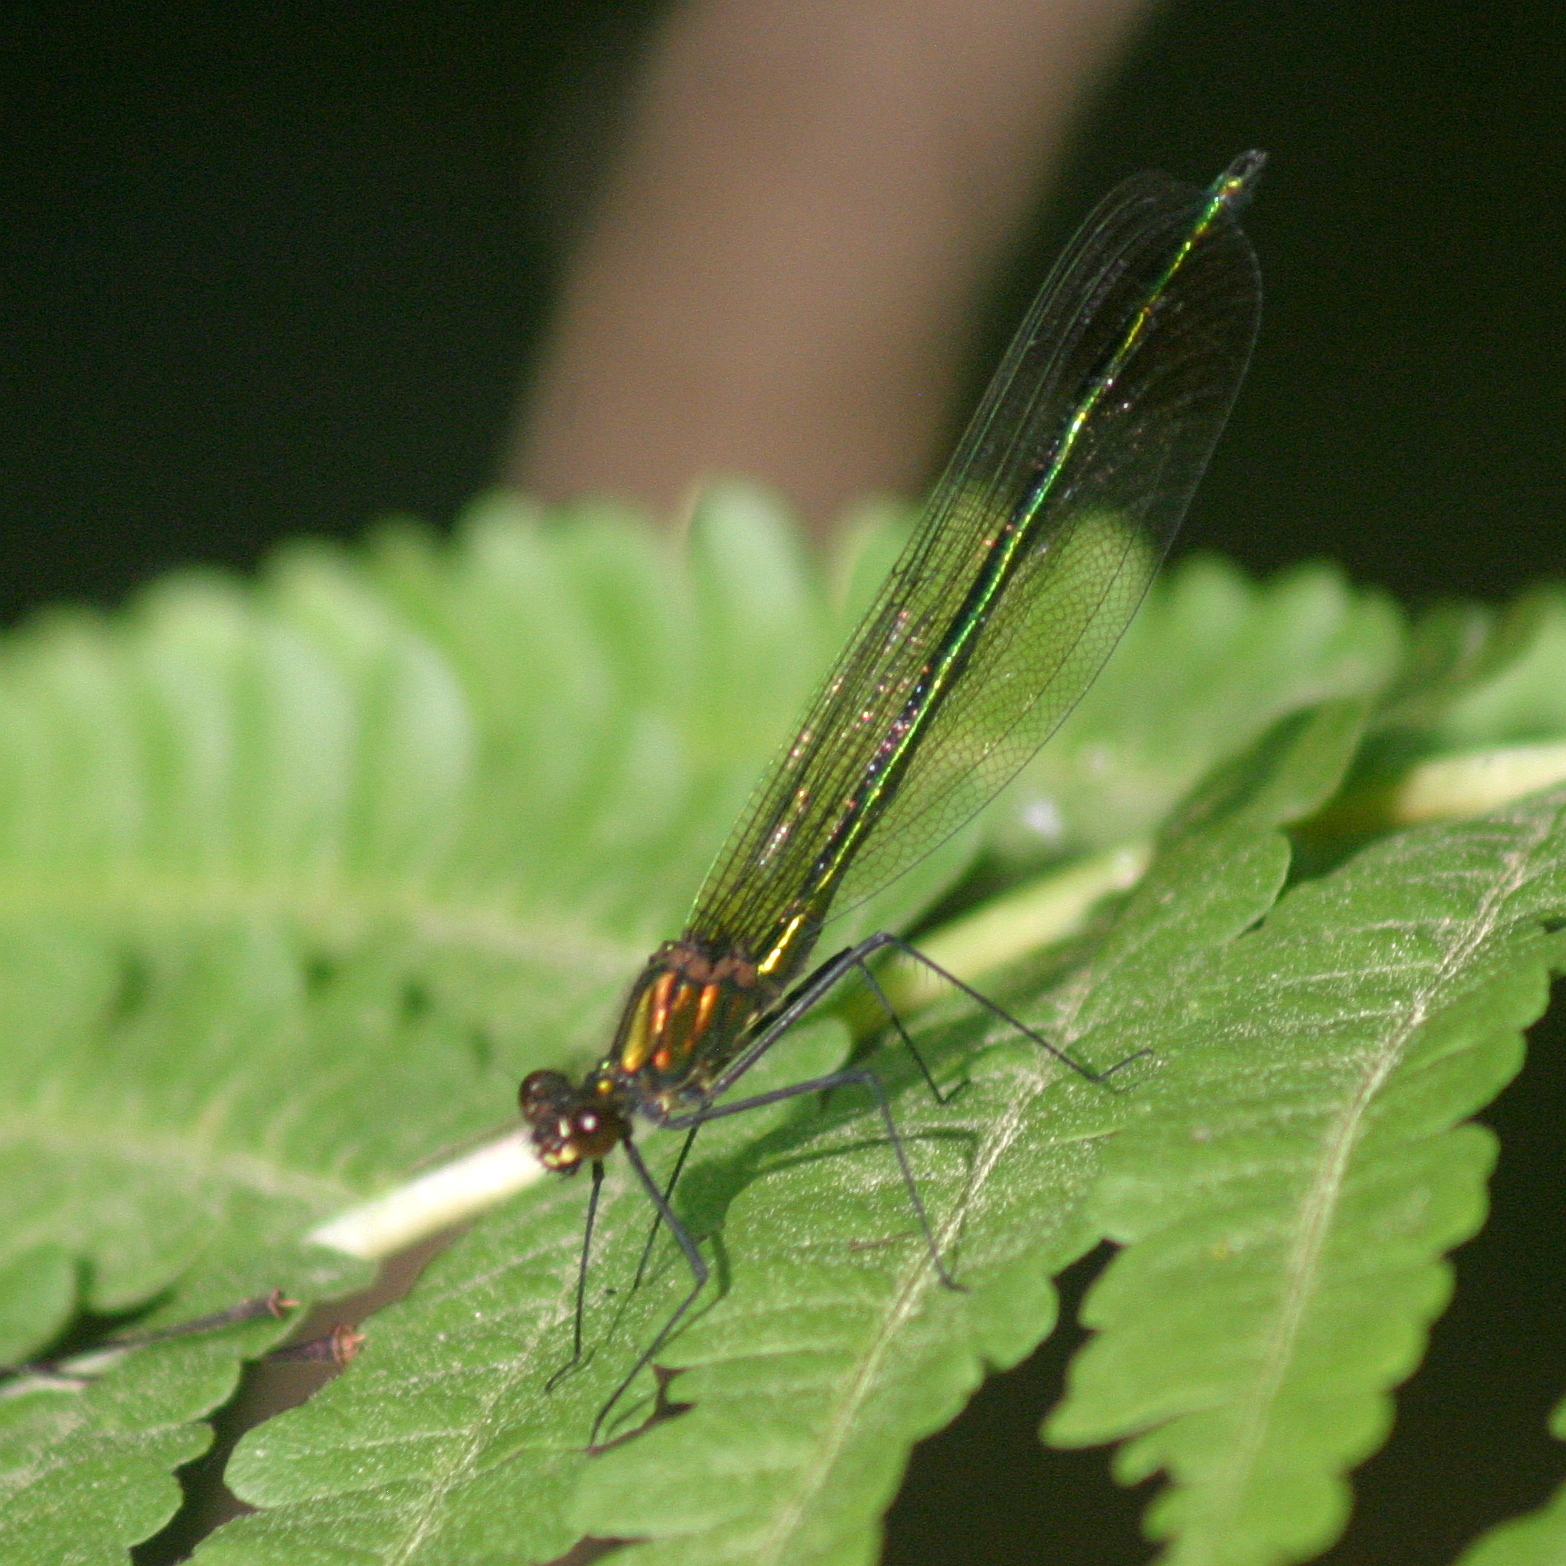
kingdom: Animalia
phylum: Arthropoda
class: Insecta
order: Odonata
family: Calopterygidae
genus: Calopteryx
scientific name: Calopteryx amata
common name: Superb jewelwing
